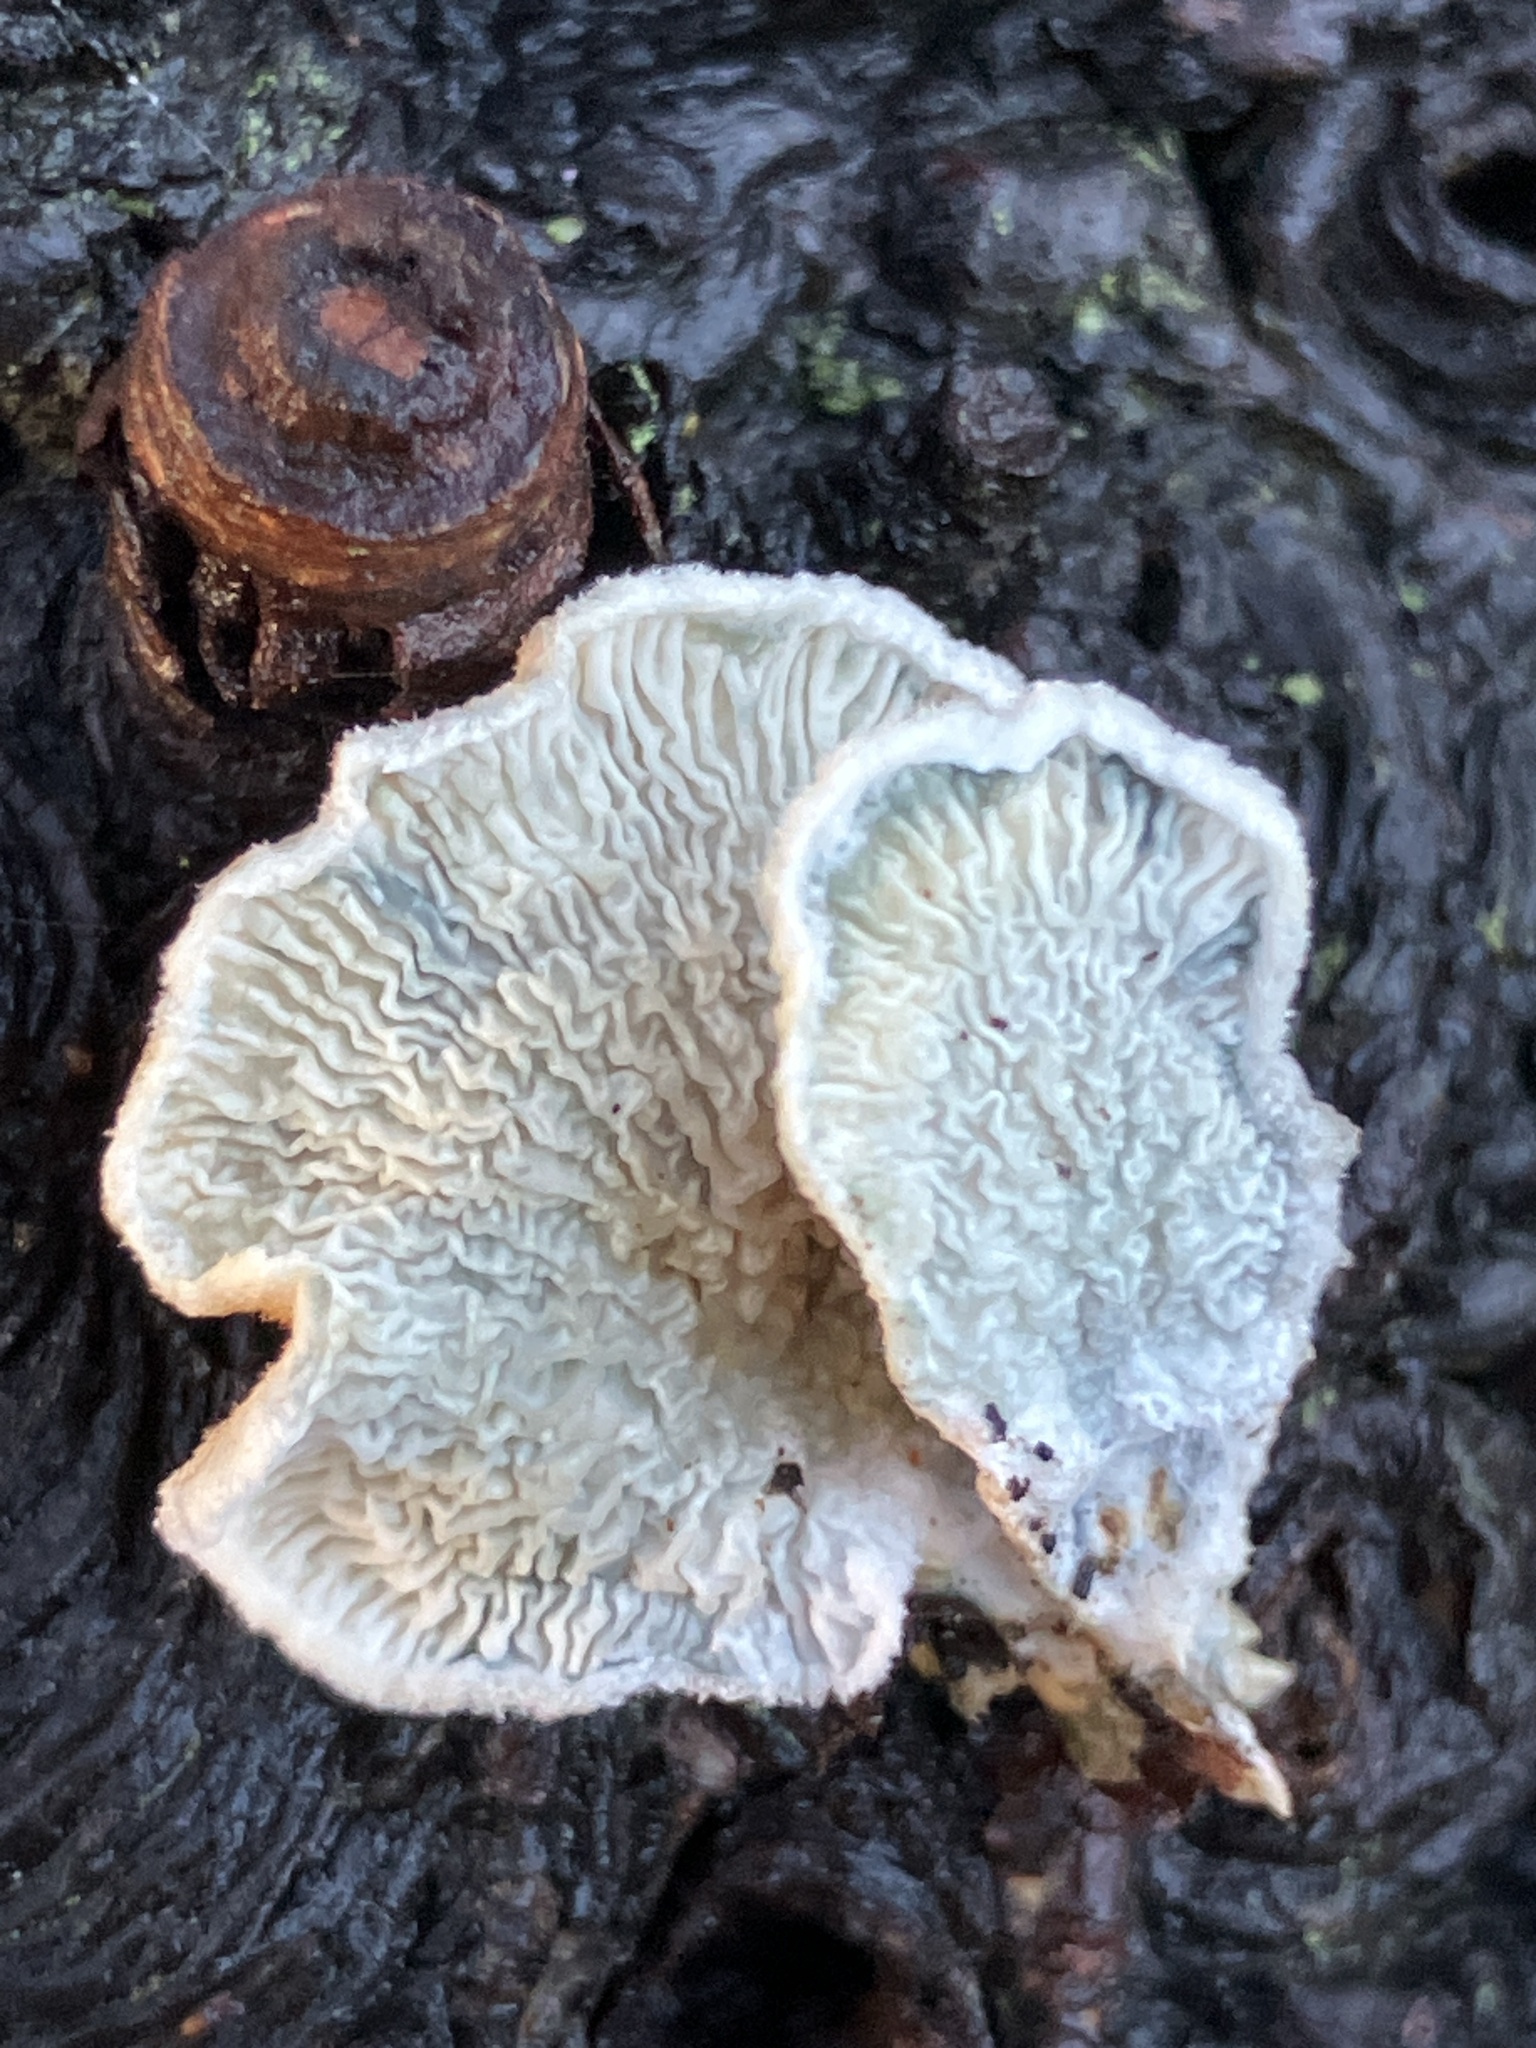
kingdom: Fungi
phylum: Basidiomycota
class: Agaricomycetes
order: Amylocorticiales
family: Amylocorticiaceae
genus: Plicaturopsis
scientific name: Plicaturopsis crispa
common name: Crimped gill
